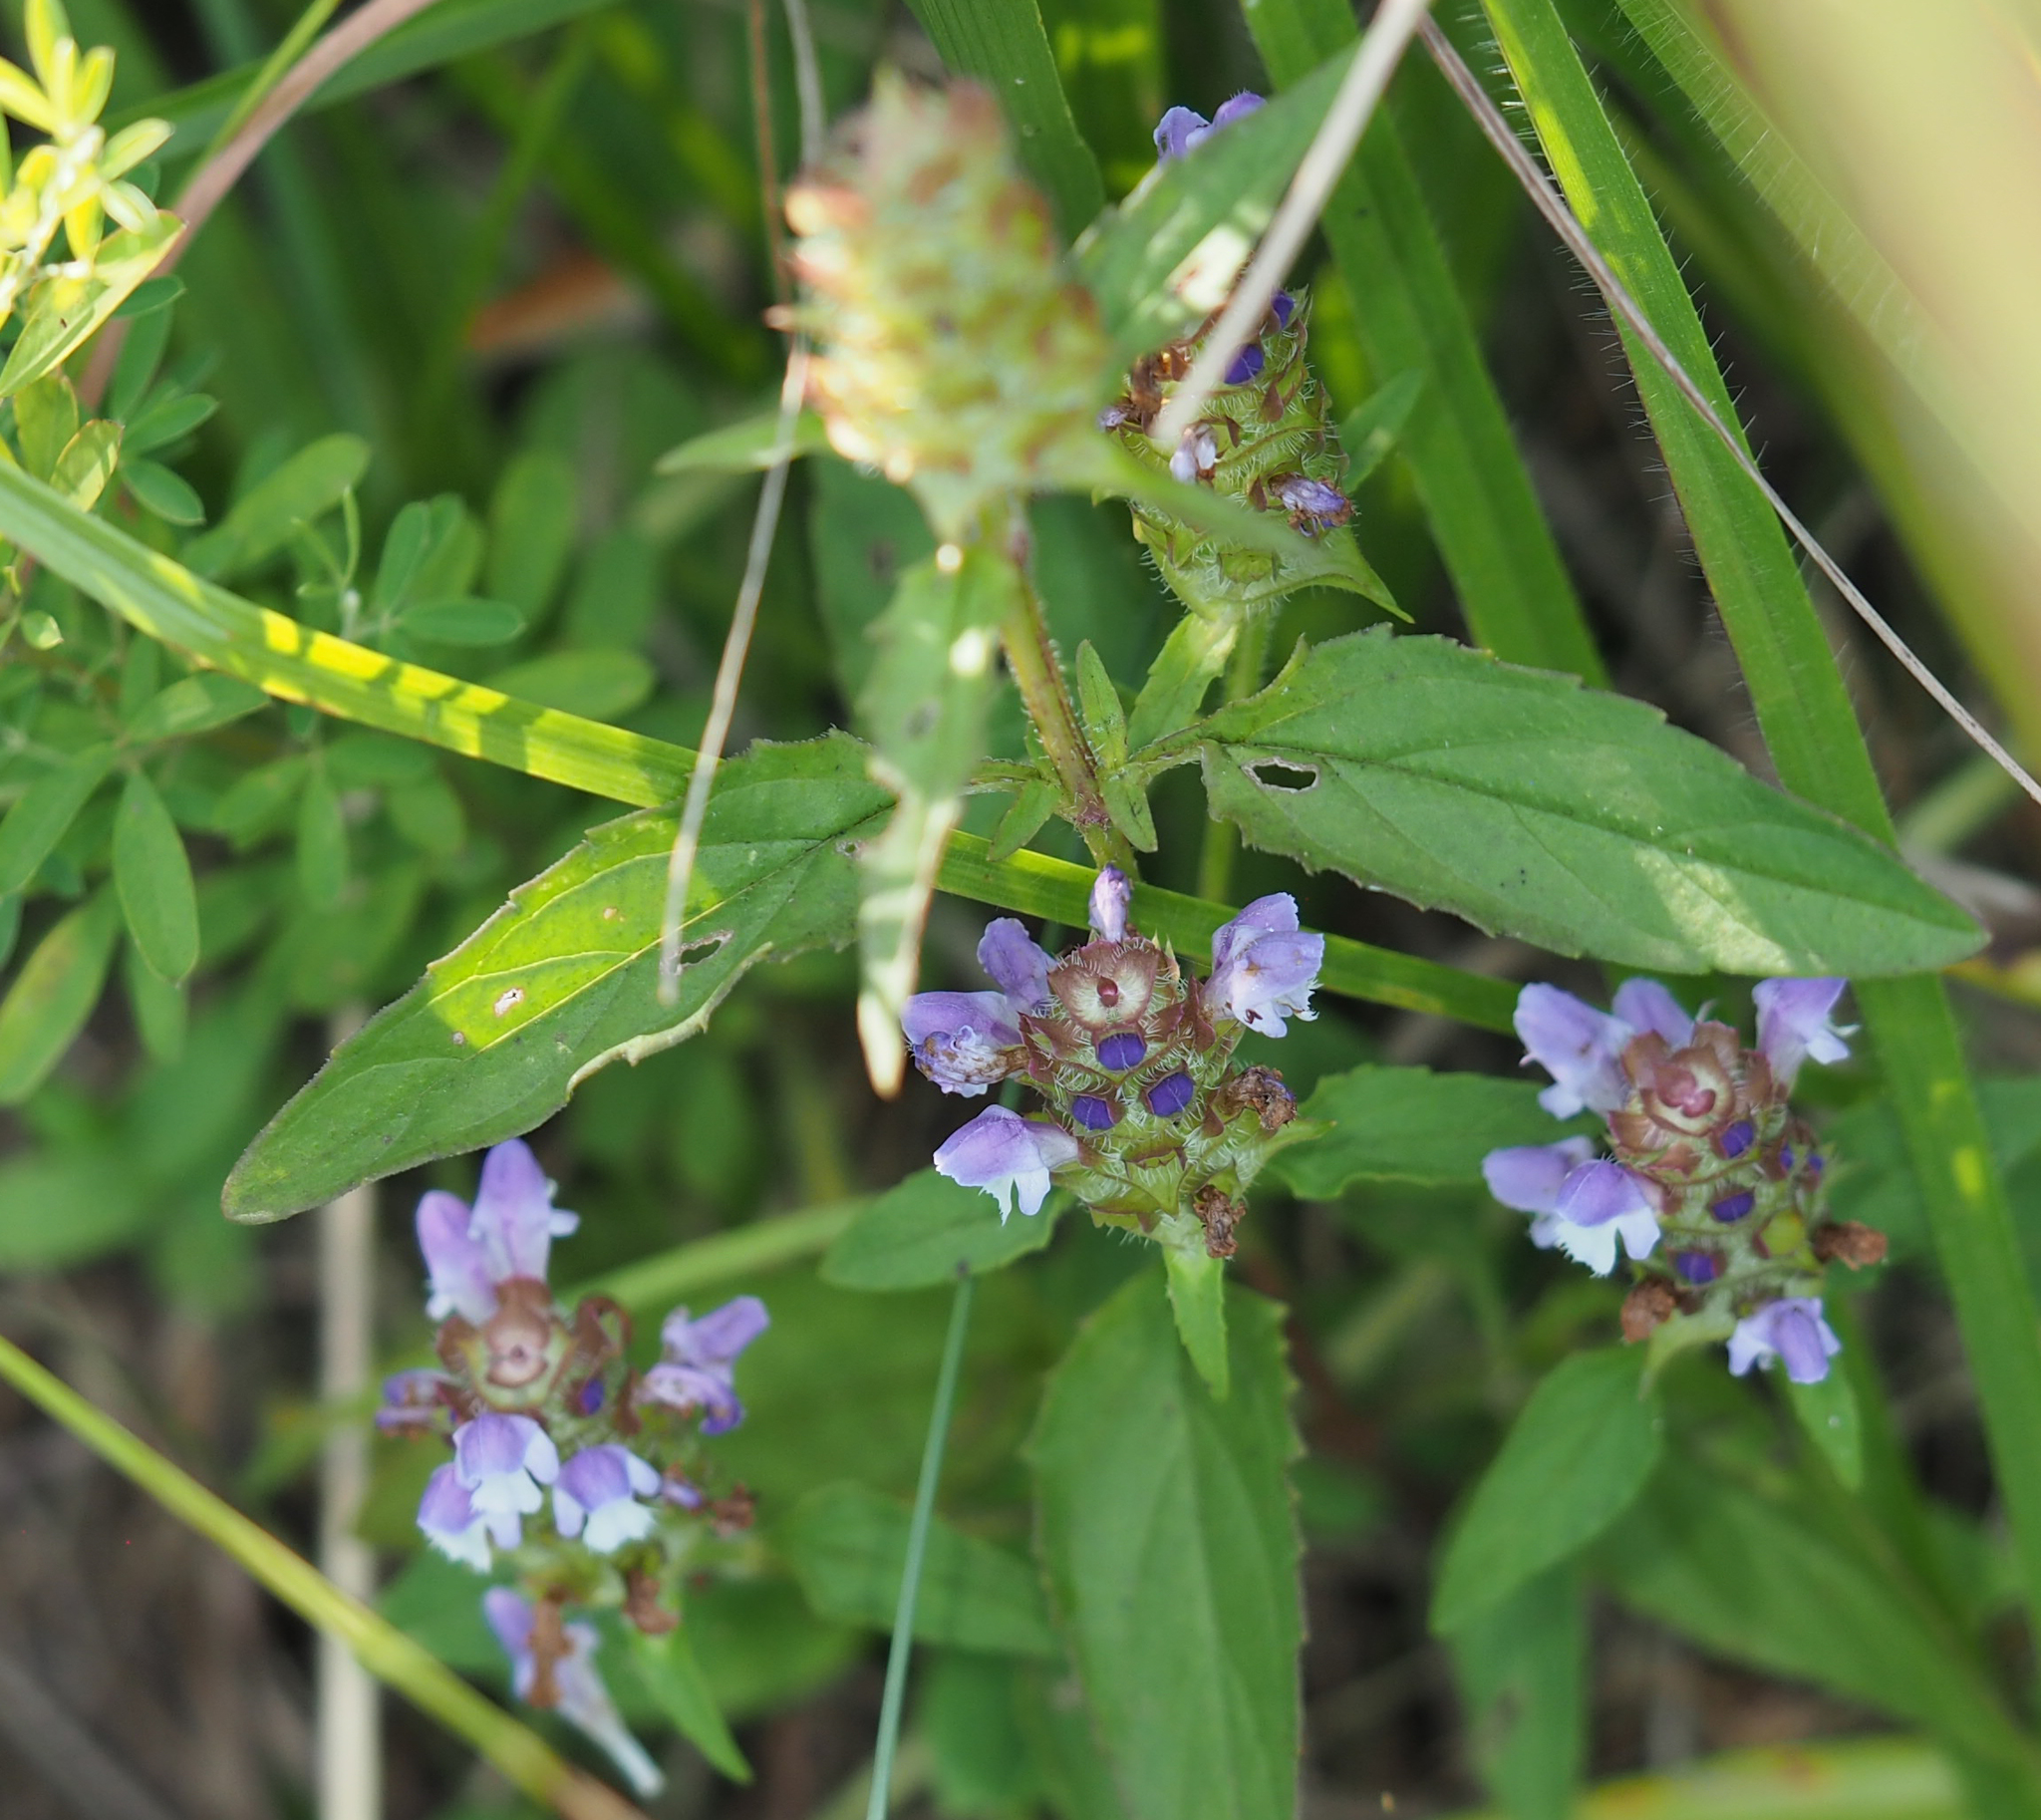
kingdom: Plantae
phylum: Tracheophyta
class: Magnoliopsida
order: Lamiales
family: Lamiaceae
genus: Prunella
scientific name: Prunella vulgaris
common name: Heal-all
